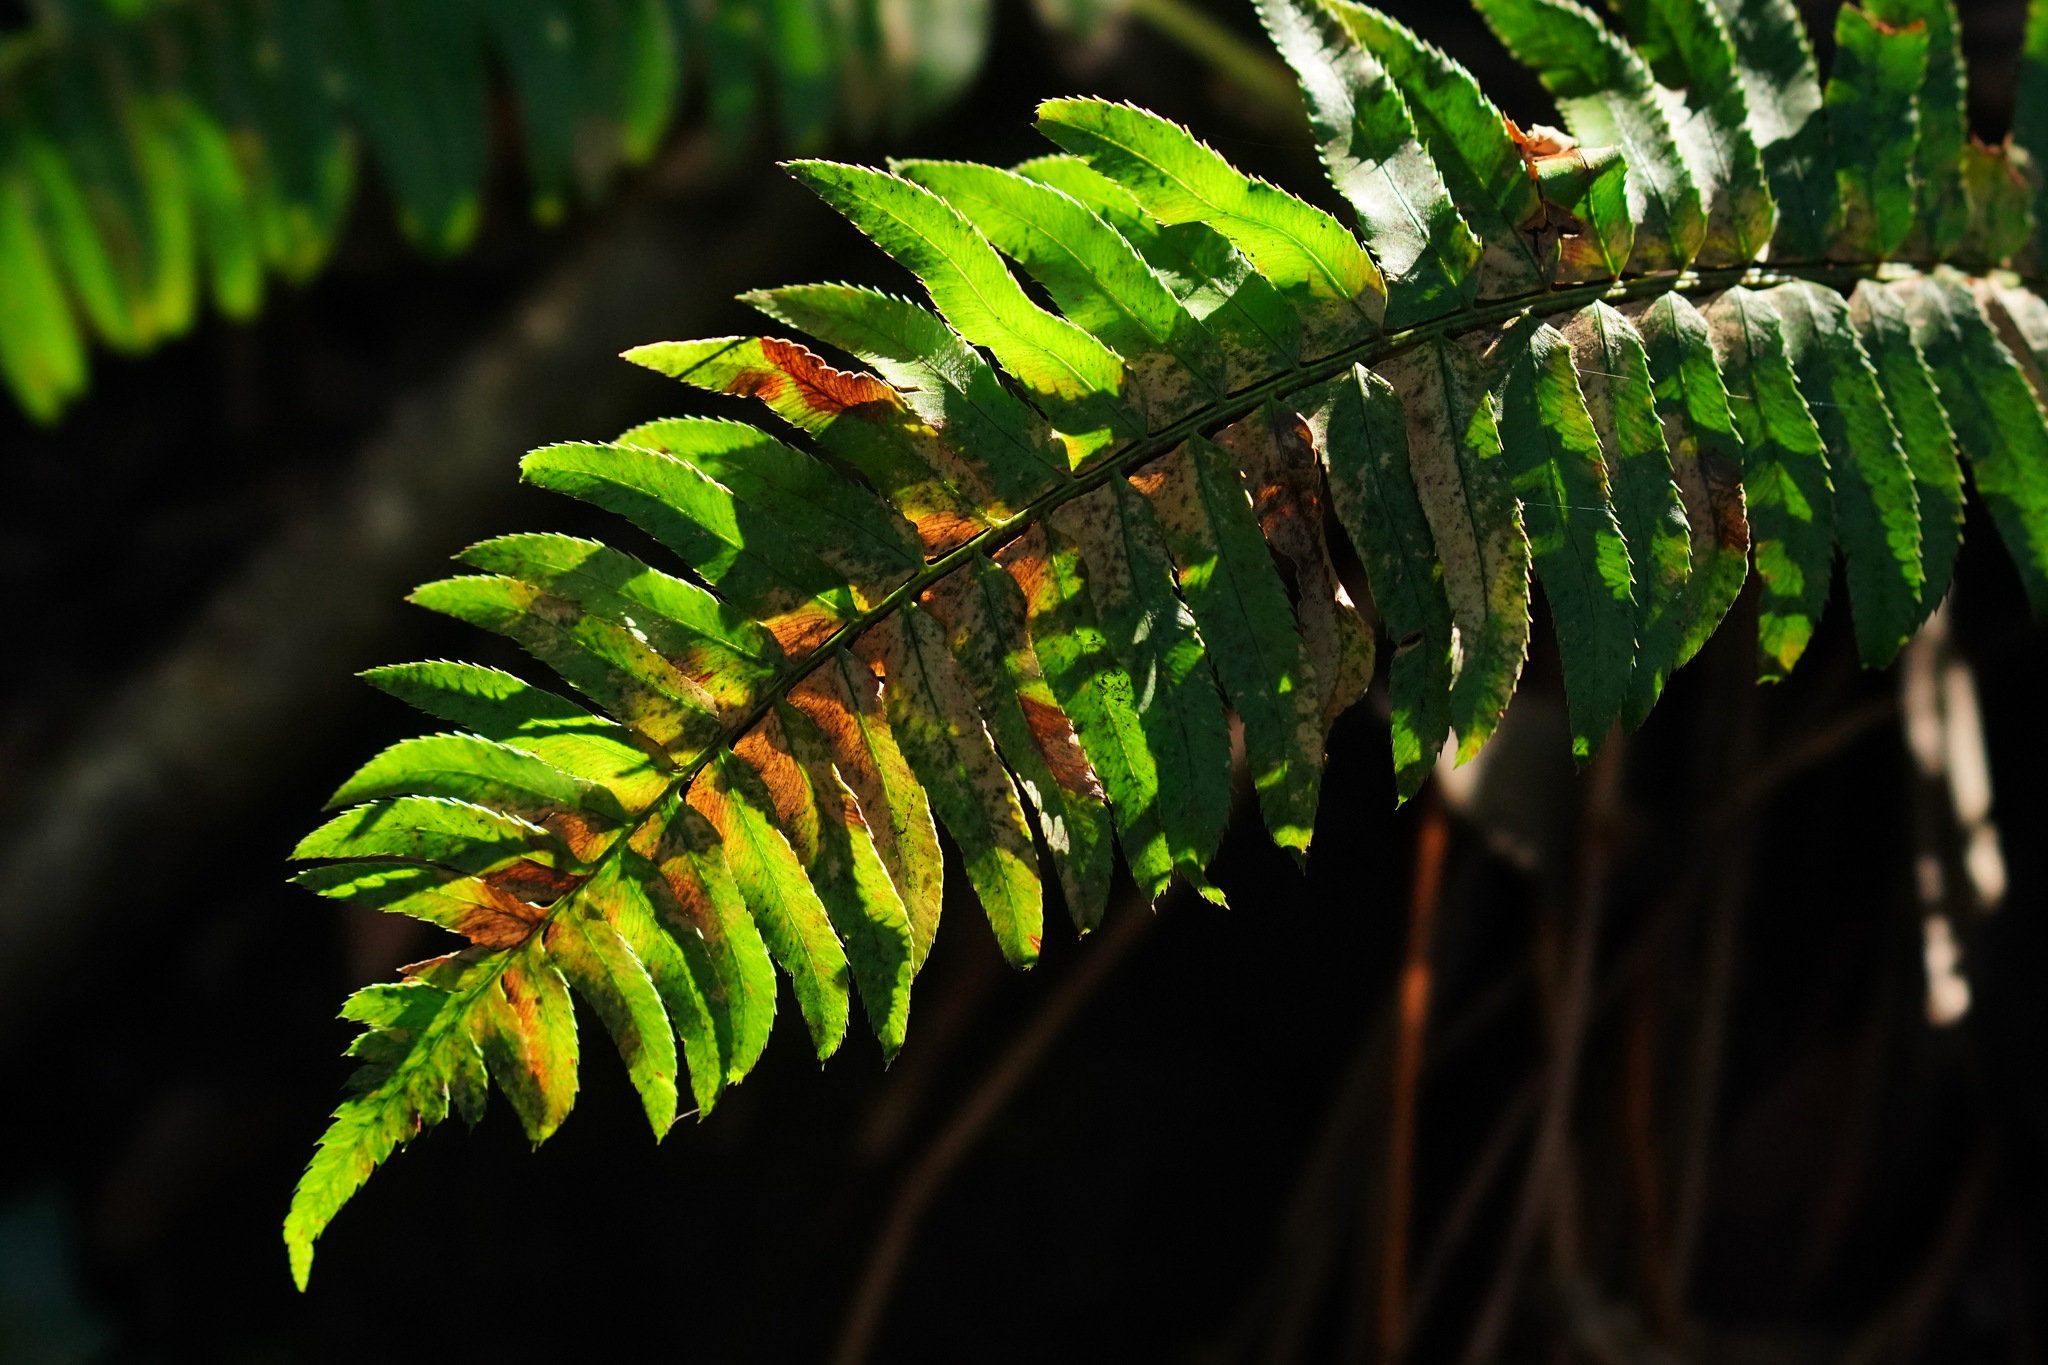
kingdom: Plantae
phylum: Tracheophyta
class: Polypodiopsida
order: Polypodiales
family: Dryopteridaceae
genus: Polystichum
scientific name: Polystichum munitum
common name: Western sword-fern
